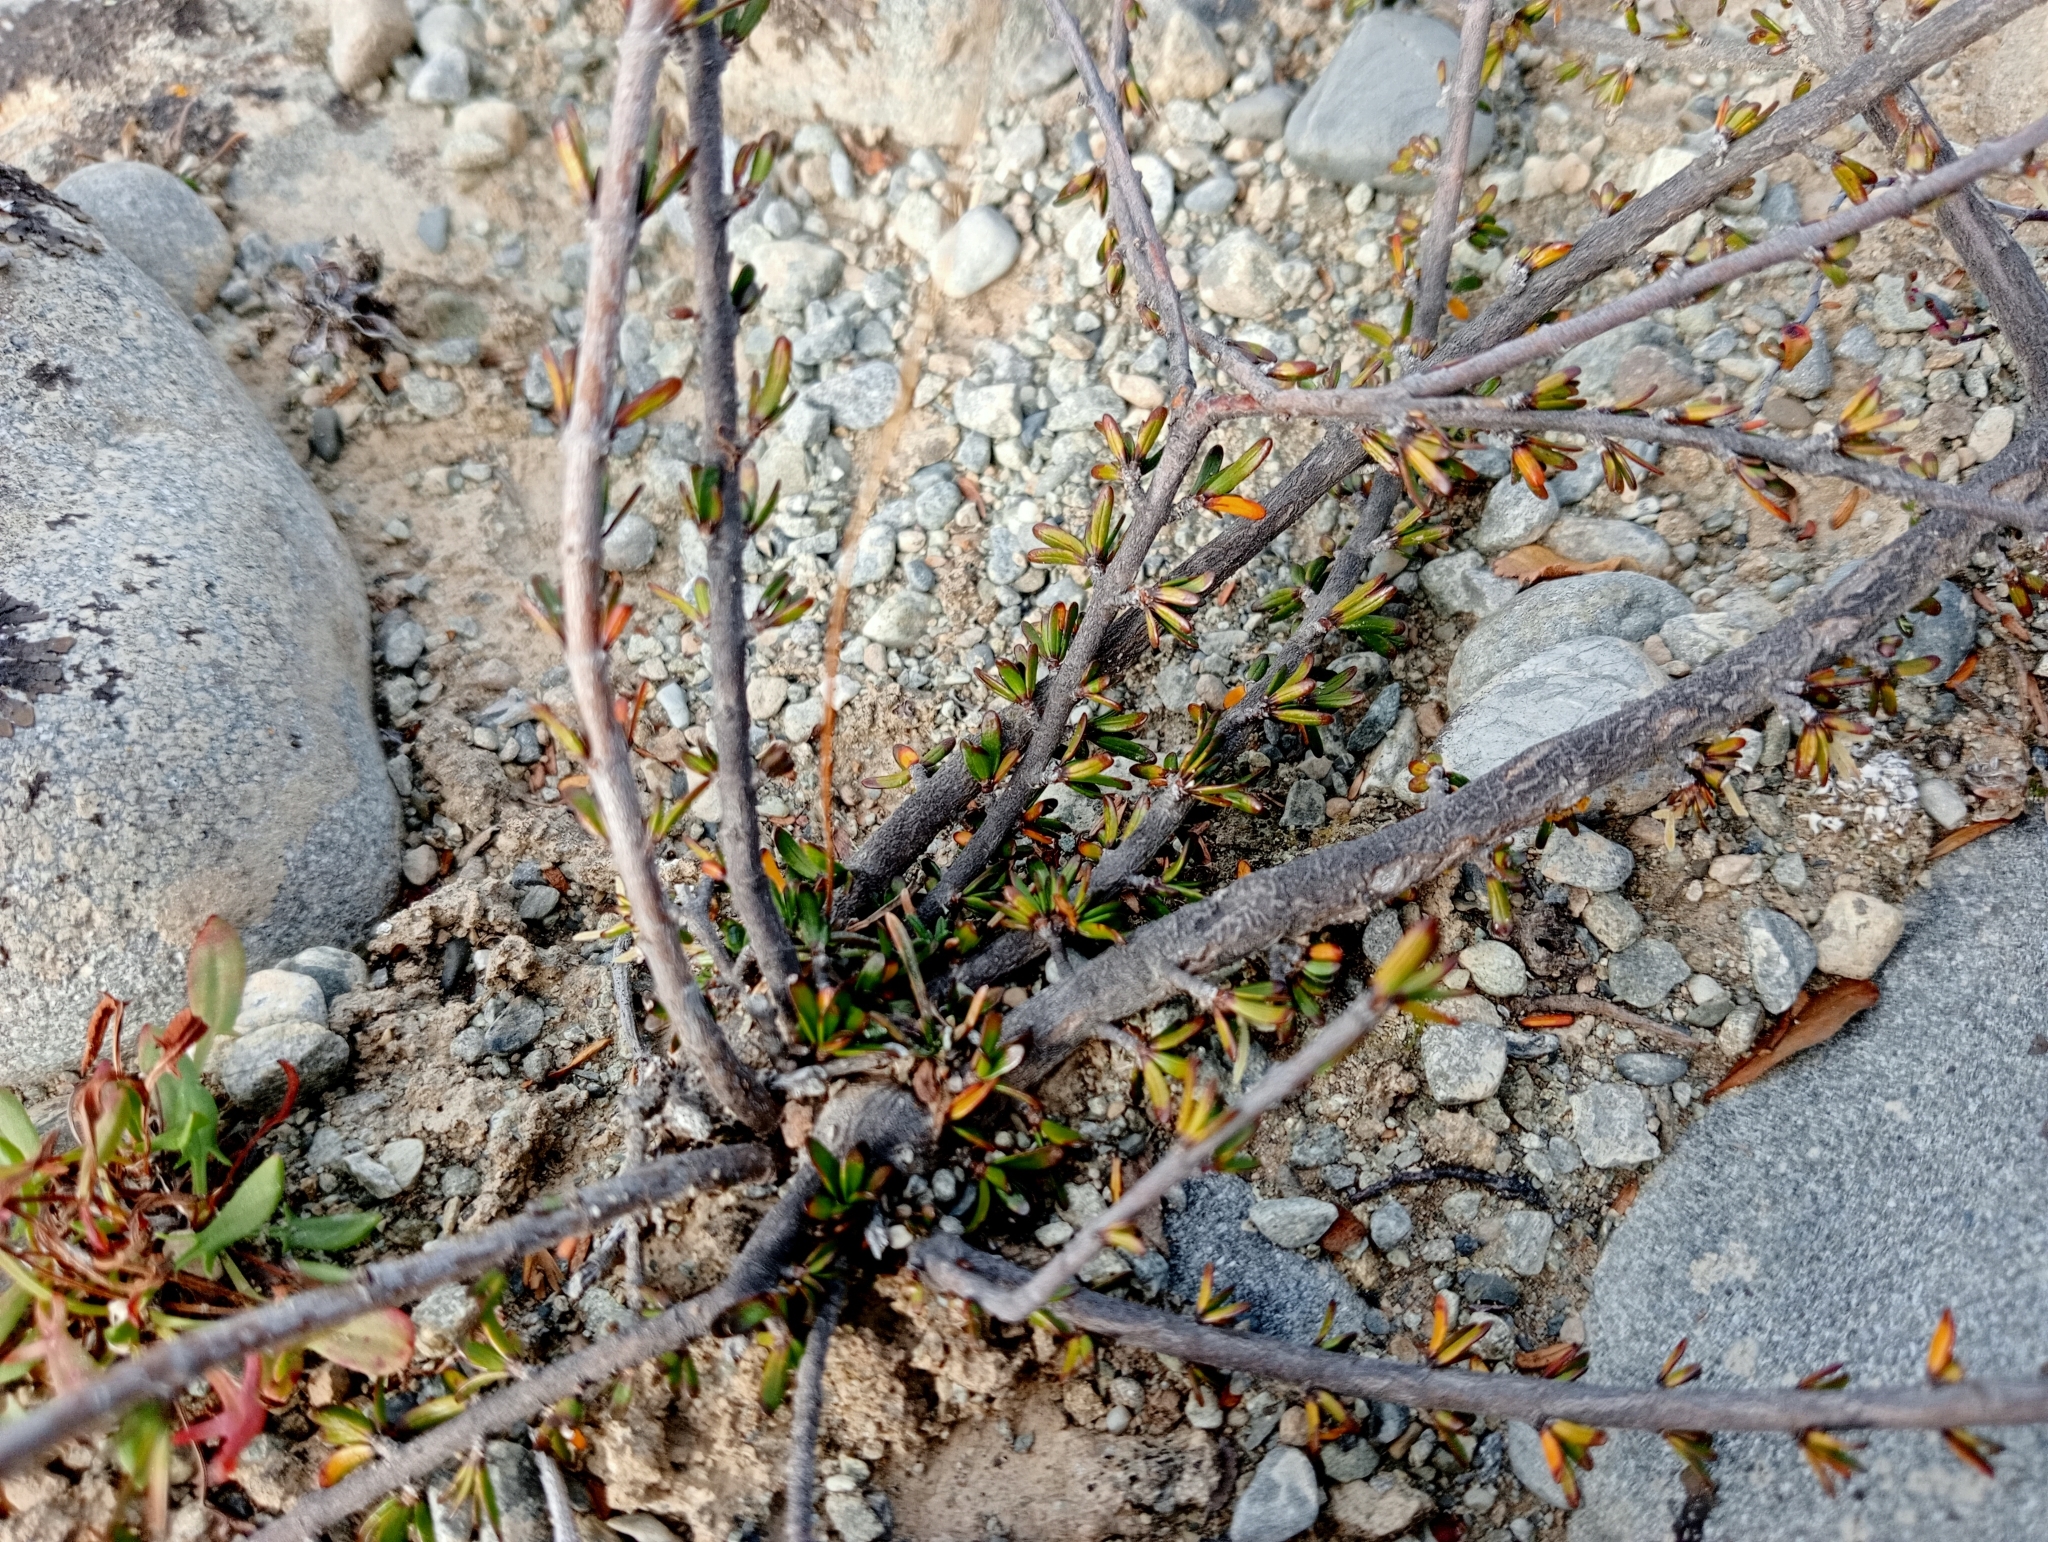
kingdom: Plantae
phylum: Tracheophyta
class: Magnoliopsida
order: Gentianales
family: Rubiaceae
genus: Coprosma
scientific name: Coprosma acerosa
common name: Sand coprosma
